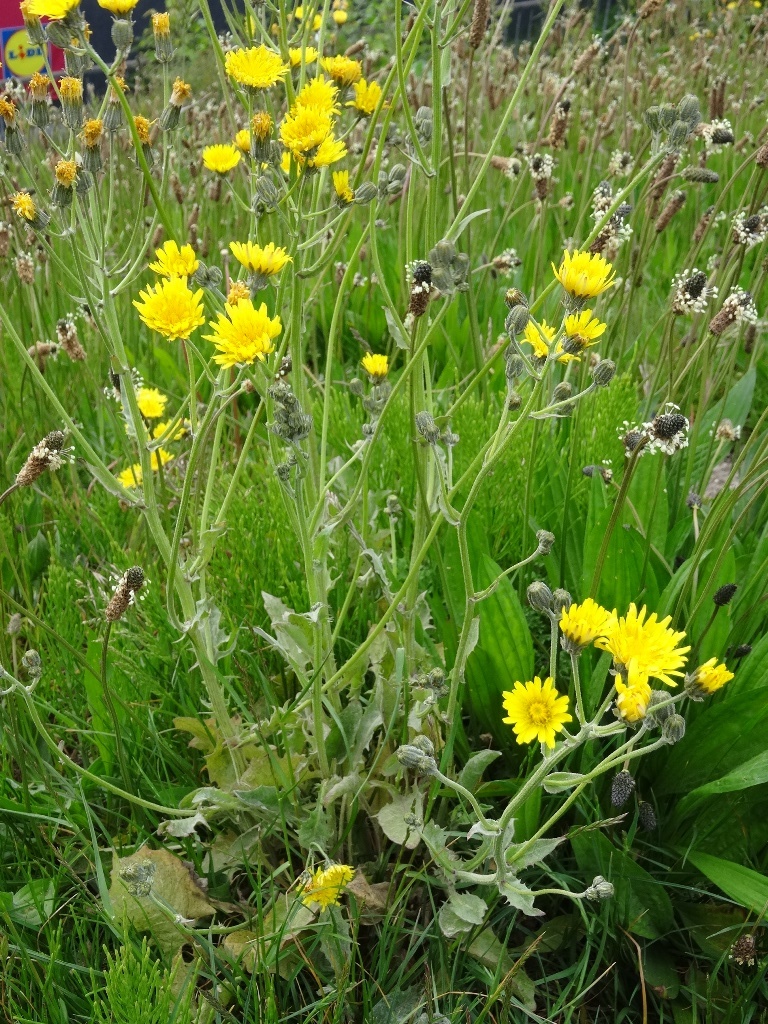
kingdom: Plantae
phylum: Tracheophyta
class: Magnoliopsida
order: Asterales
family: Asteraceae
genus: Crepis
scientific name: Crepis vesicaria
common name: Beaked hawksbeard
